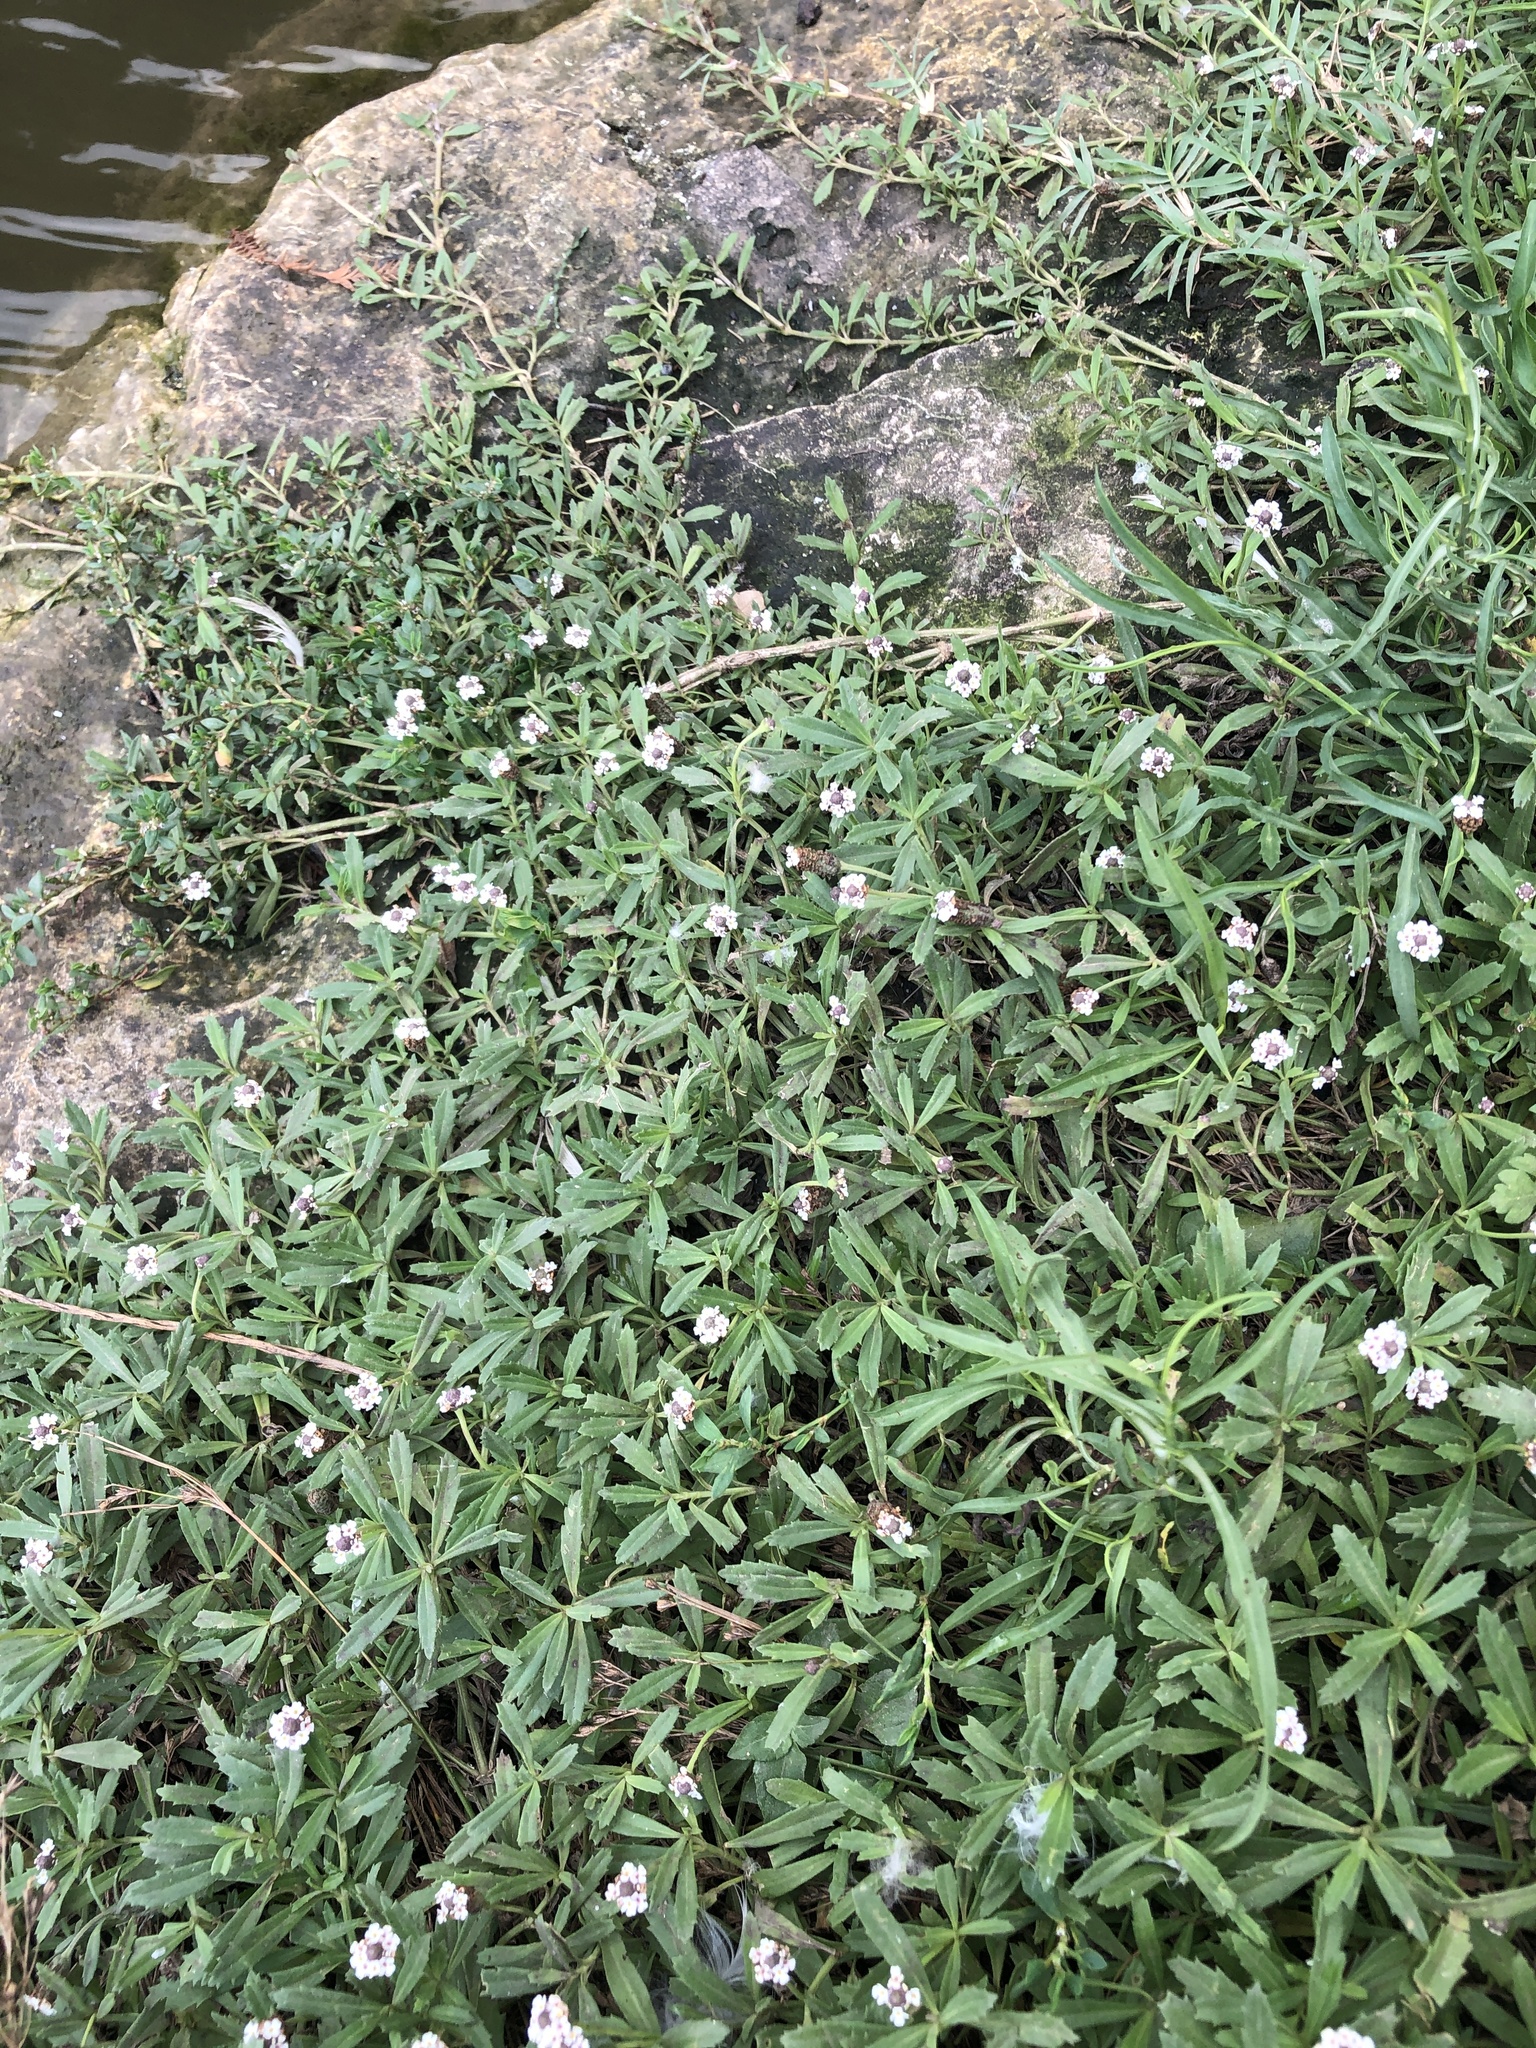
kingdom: Plantae
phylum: Tracheophyta
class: Magnoliopsida
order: Lamiales
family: Verbenaceae
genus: Phyla
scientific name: Phyla nodiflora
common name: Frogfruit
